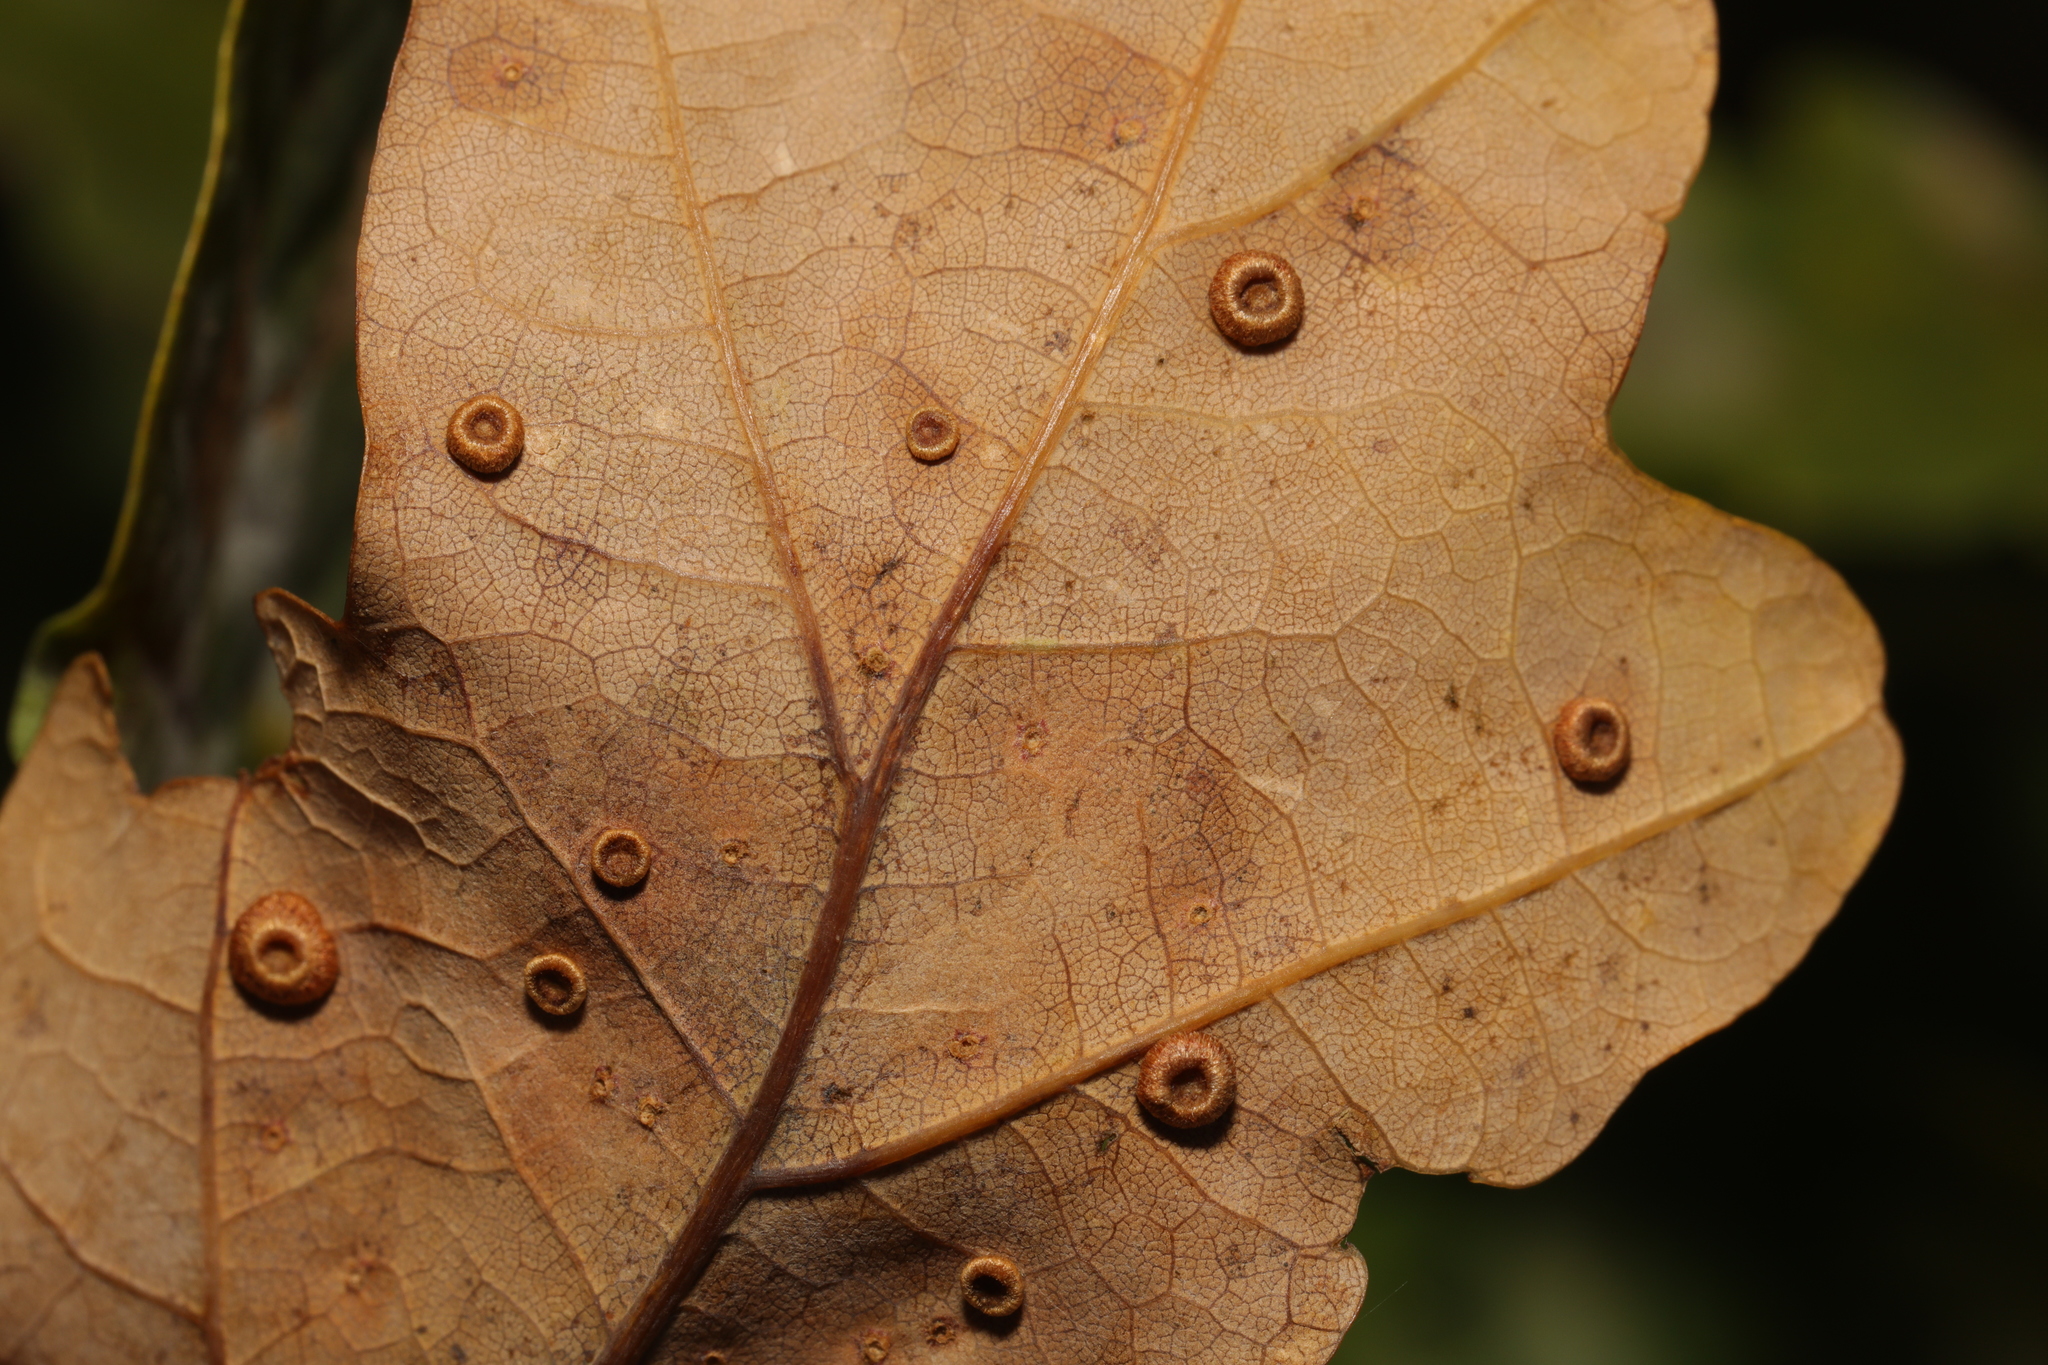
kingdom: Animalia
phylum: Arthropoda
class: Insecta
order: Hymenoptera
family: Cynipidae
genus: Neuroterus
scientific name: Neuroterus numismalis
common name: Silk-button spangle gall
